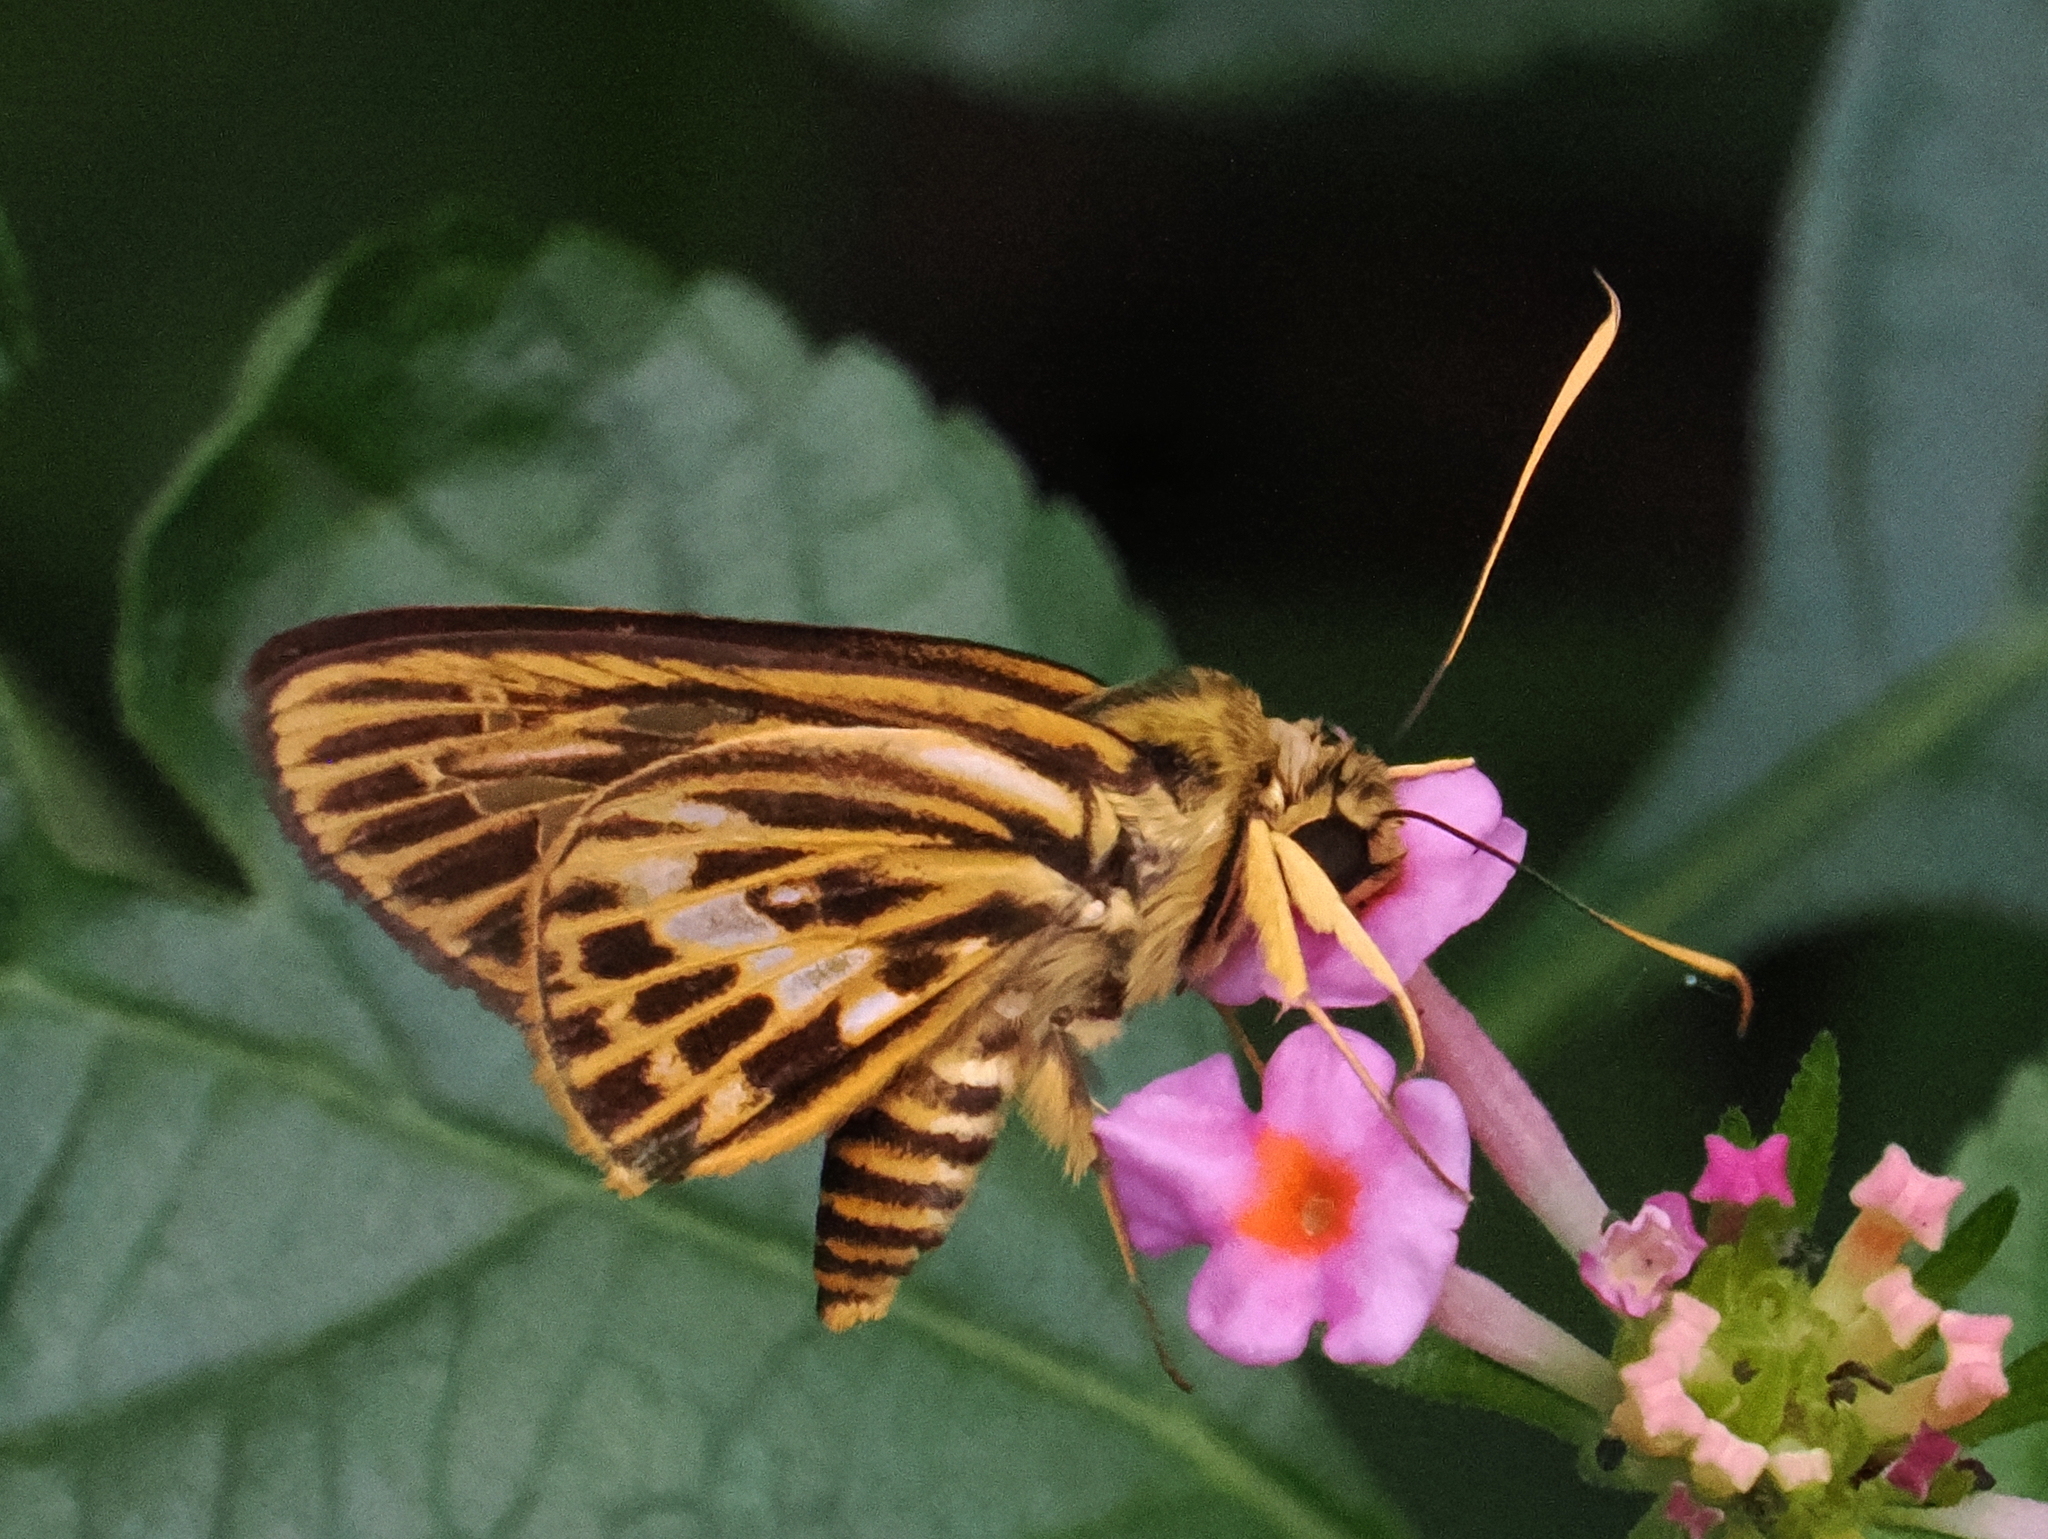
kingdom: Animalia
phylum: Arthropoda
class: Insecta
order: Lepidoptera
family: Hesperiidae
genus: Pyroneura
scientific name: Pyroneura latoia
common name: Yellow vein lancer
